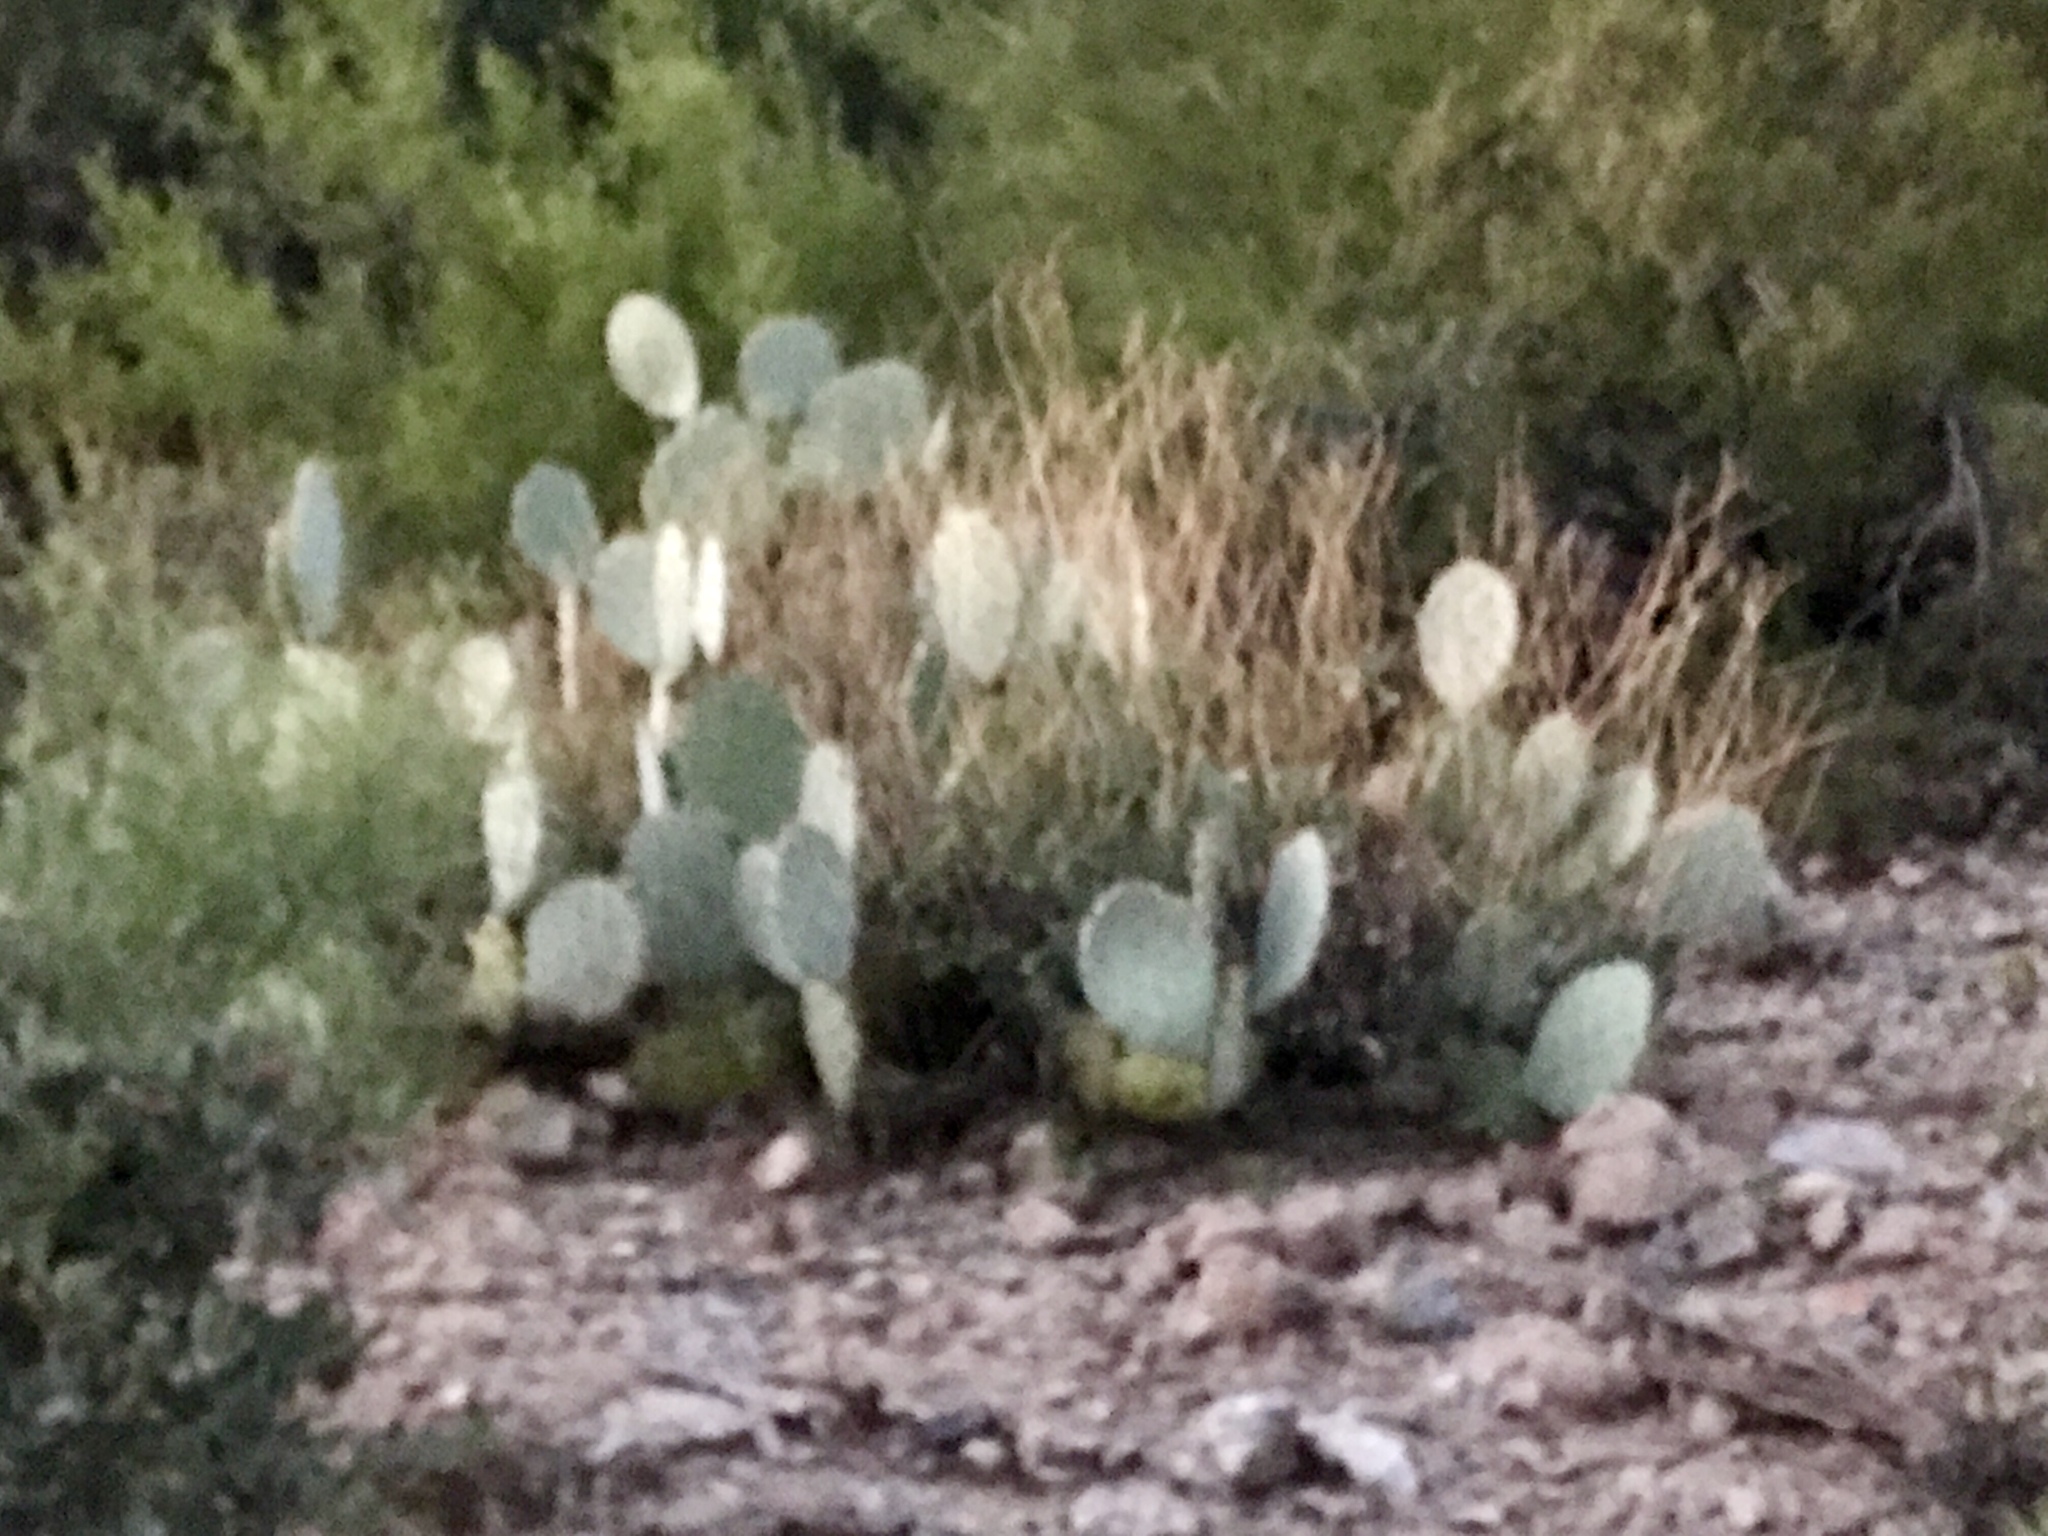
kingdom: Plantae
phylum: Tracheophyta
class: Magnoliopsida
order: Caryophyllales
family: Cactaceae
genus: Opuntia
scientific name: Opuntia engelmannii
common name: Cactus-apple
